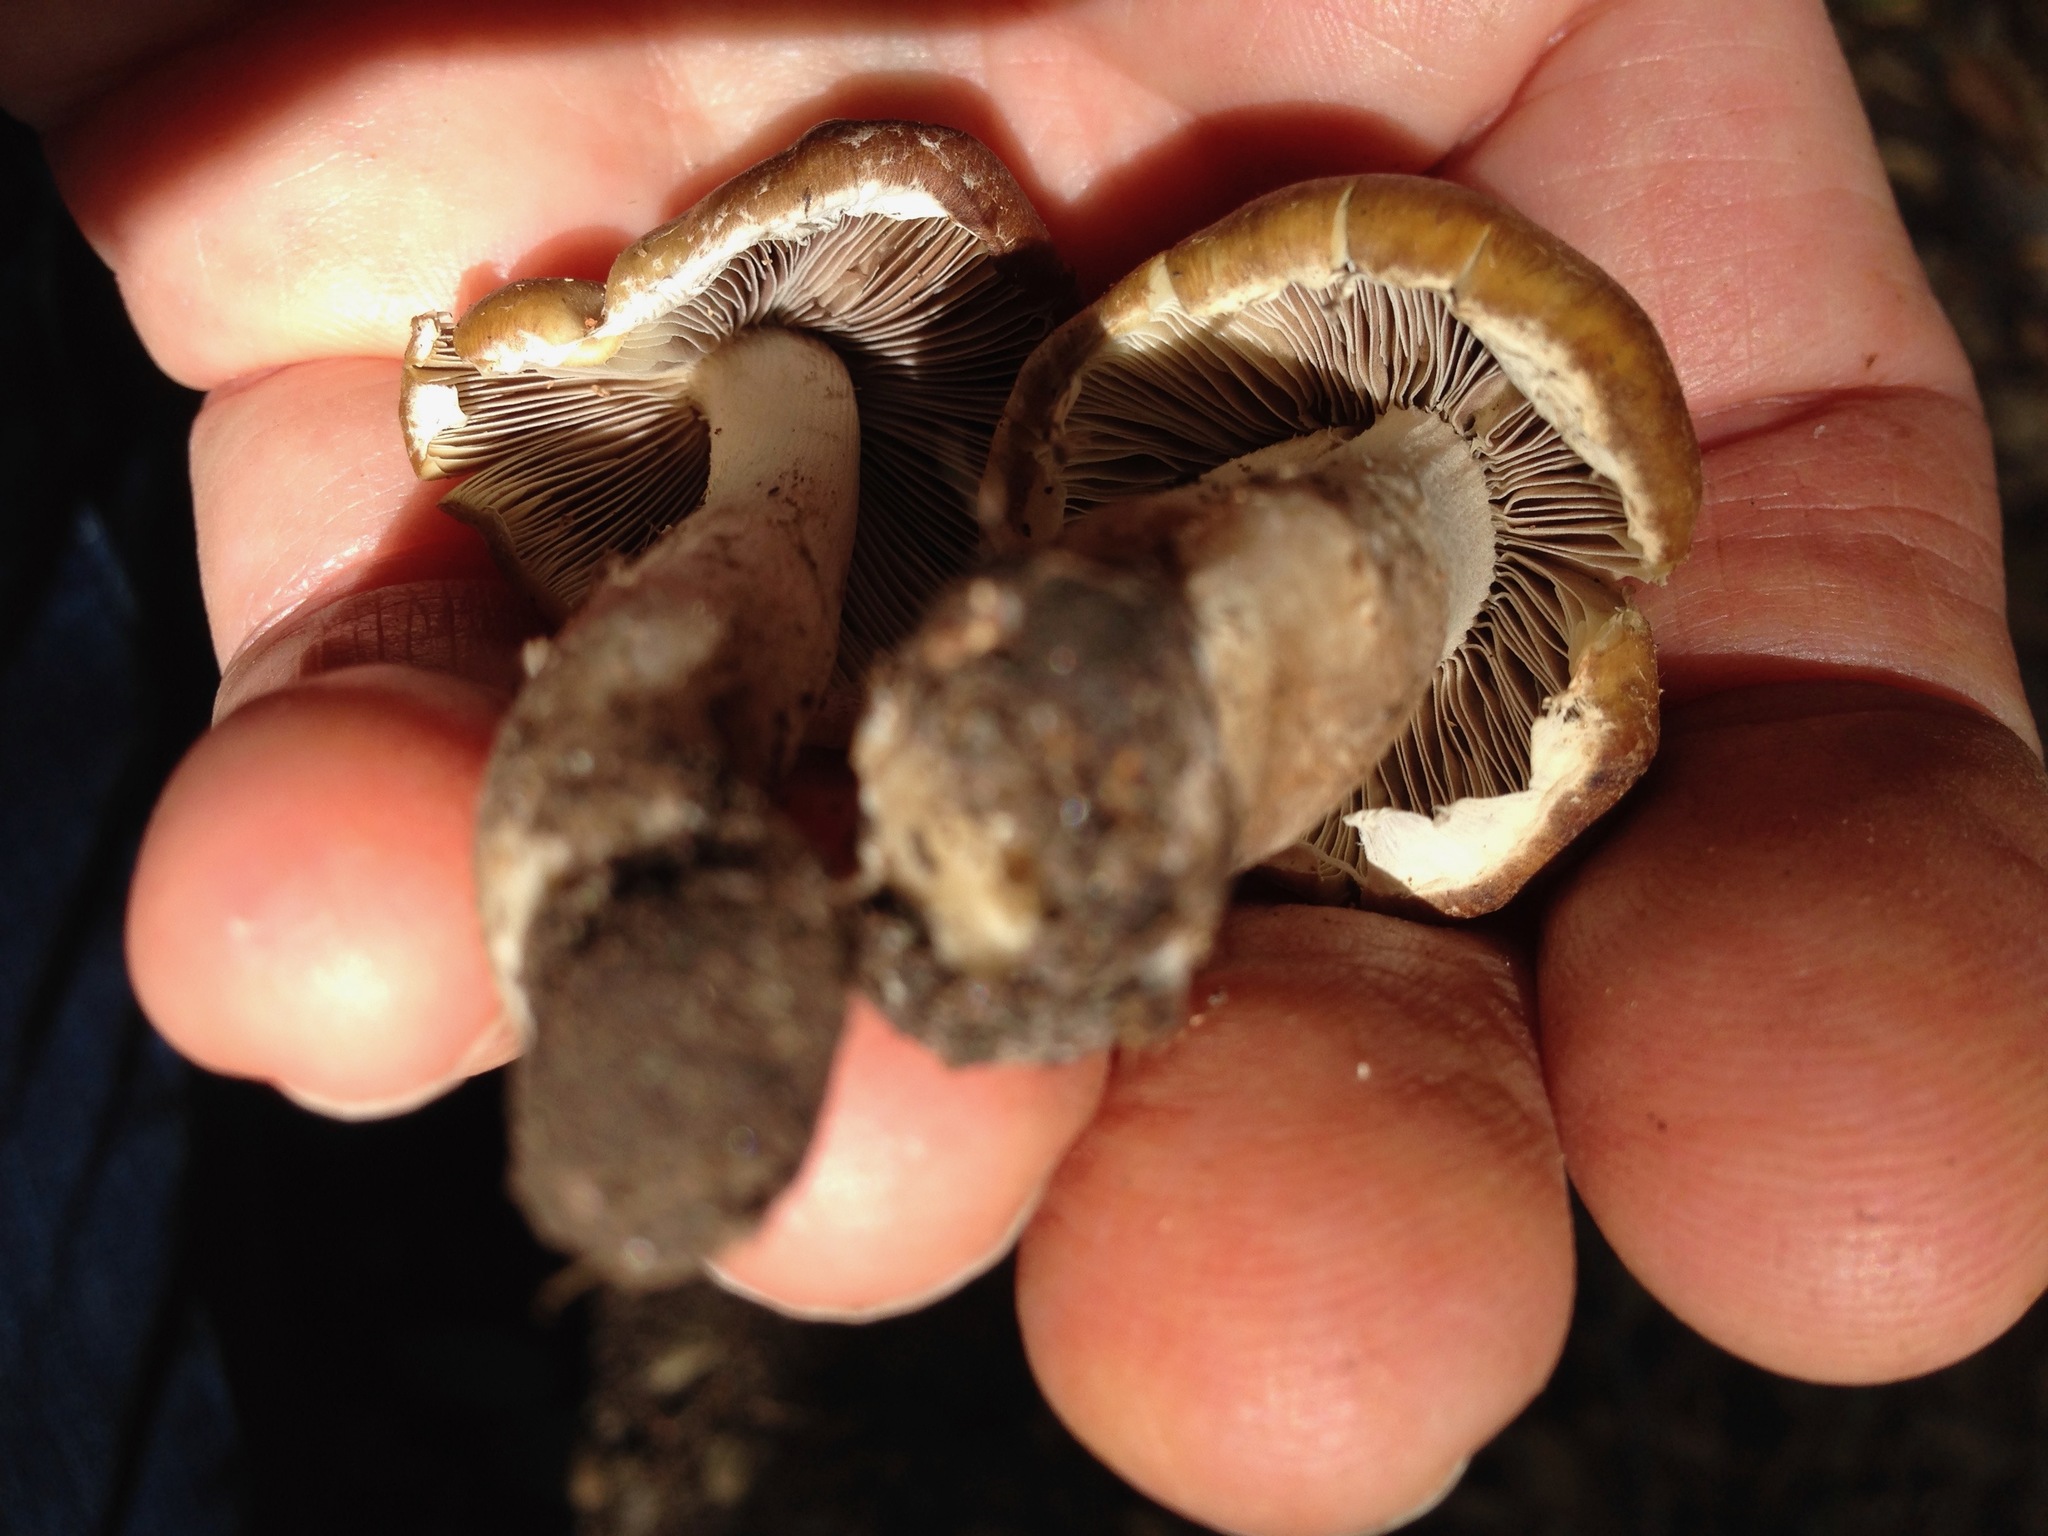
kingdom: Fungi
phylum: Basidiomycota
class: Agaricomycetes
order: Agaricales
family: Psathyrellaceae
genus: Candolleomyces
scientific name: Candolleomyces candolleanus
